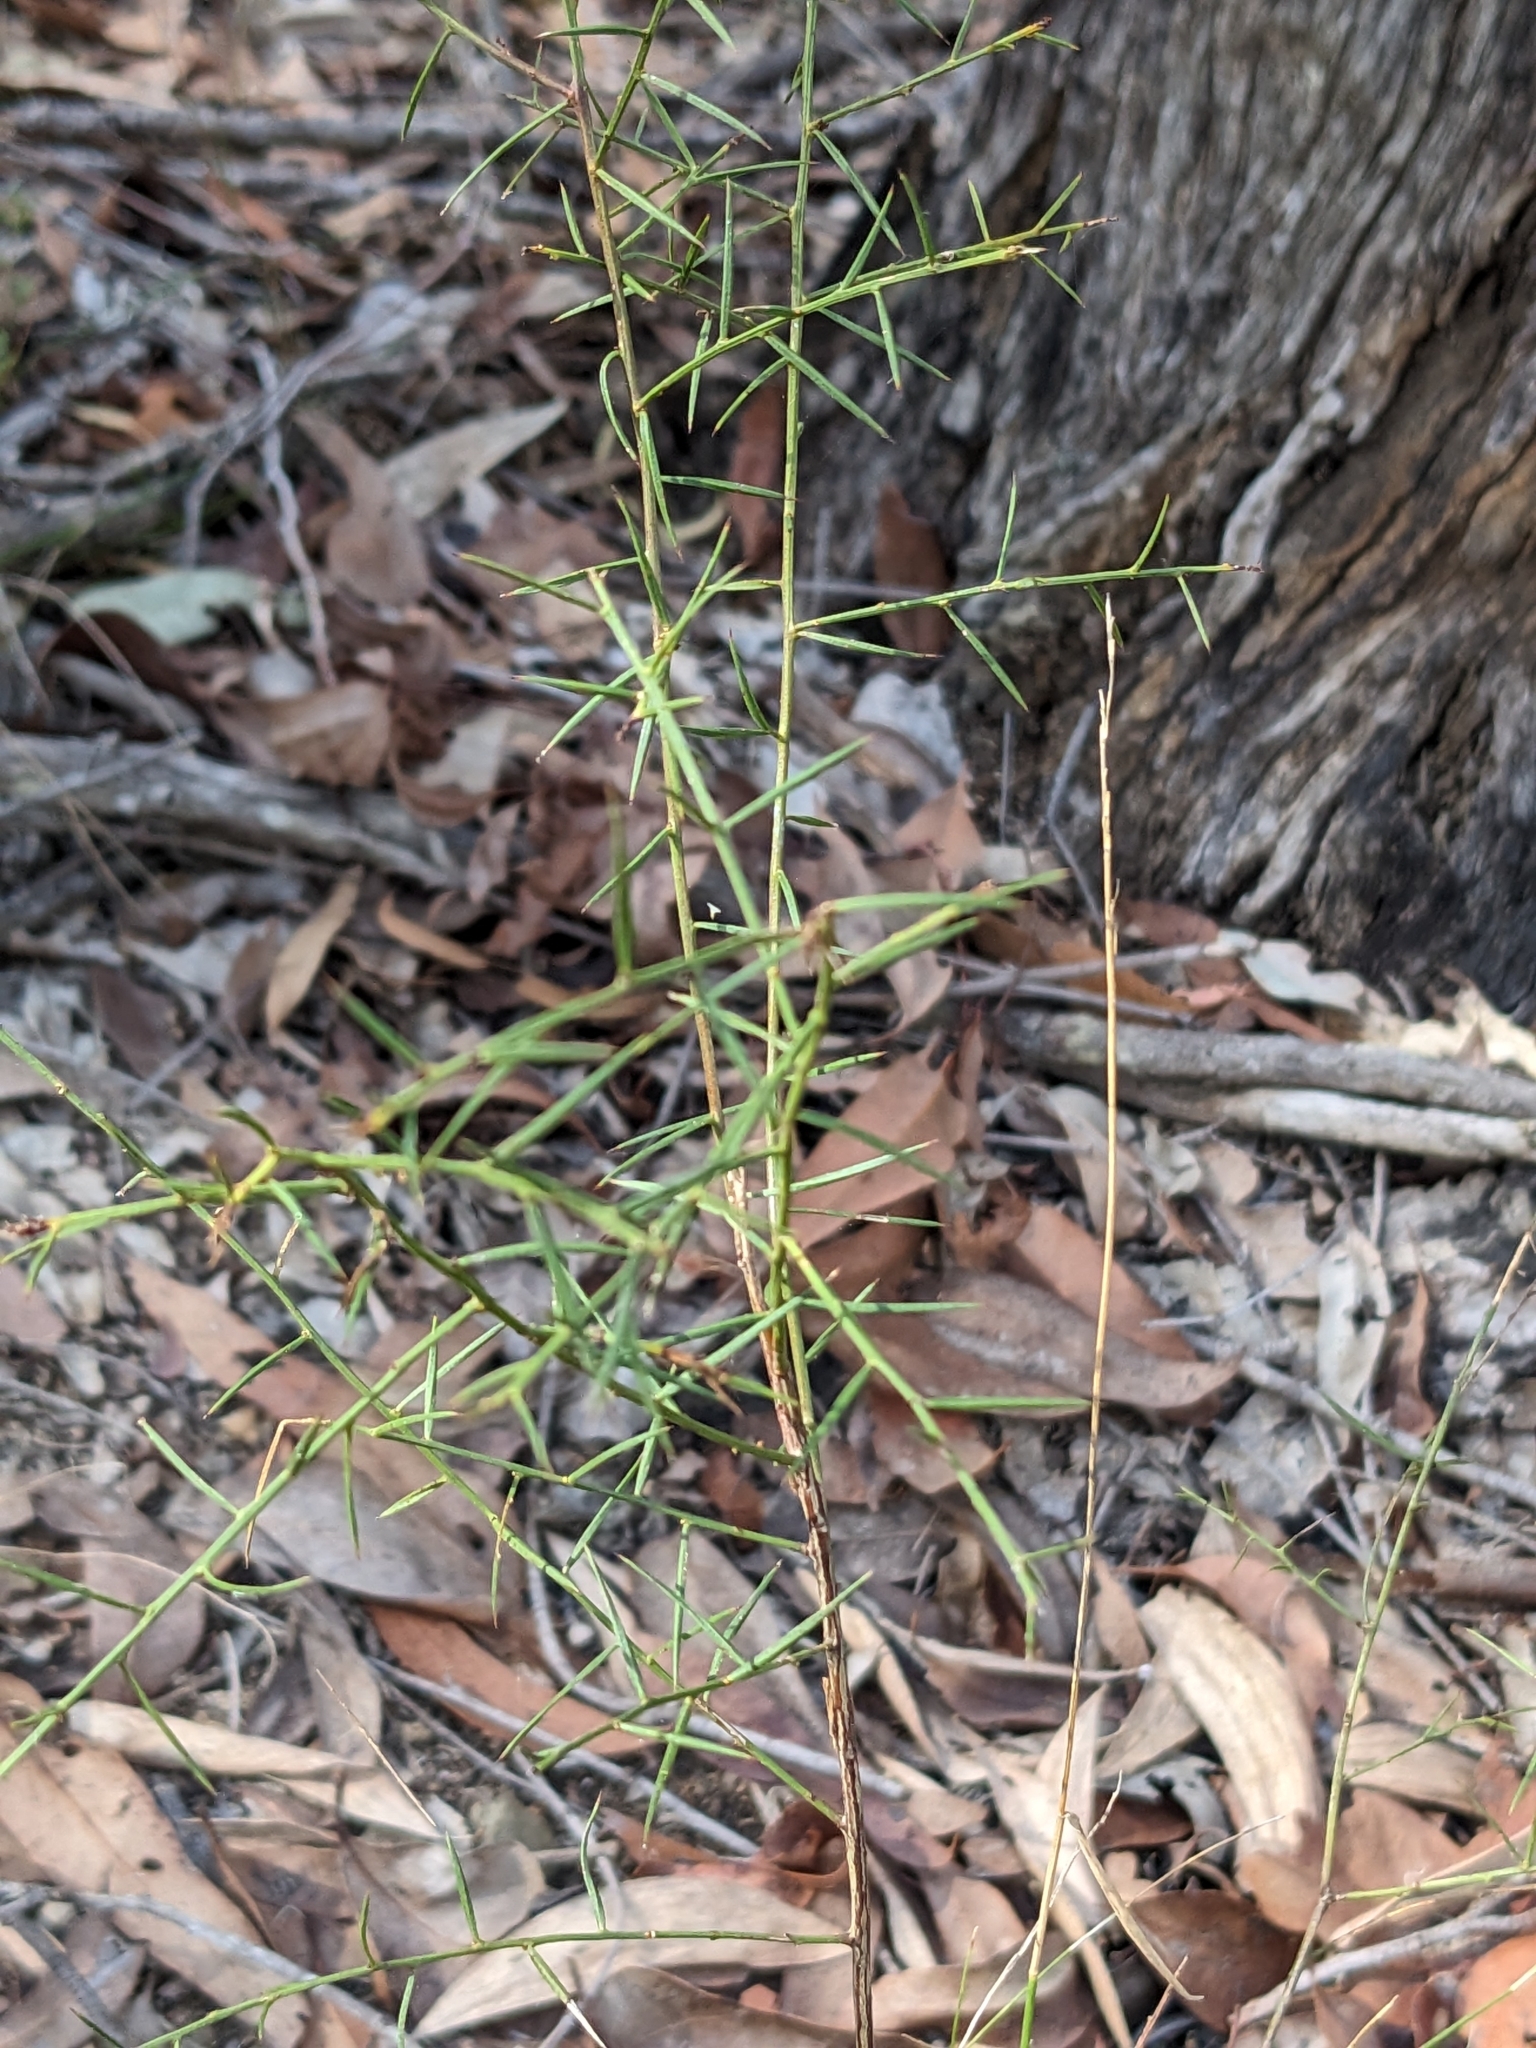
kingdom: Plantae
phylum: Tracheophyta
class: Magnoliopsida
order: Fabales
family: Fabaceae
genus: Daviesia
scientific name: Daviesia ulicifolia
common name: Gorse bitter-pea
